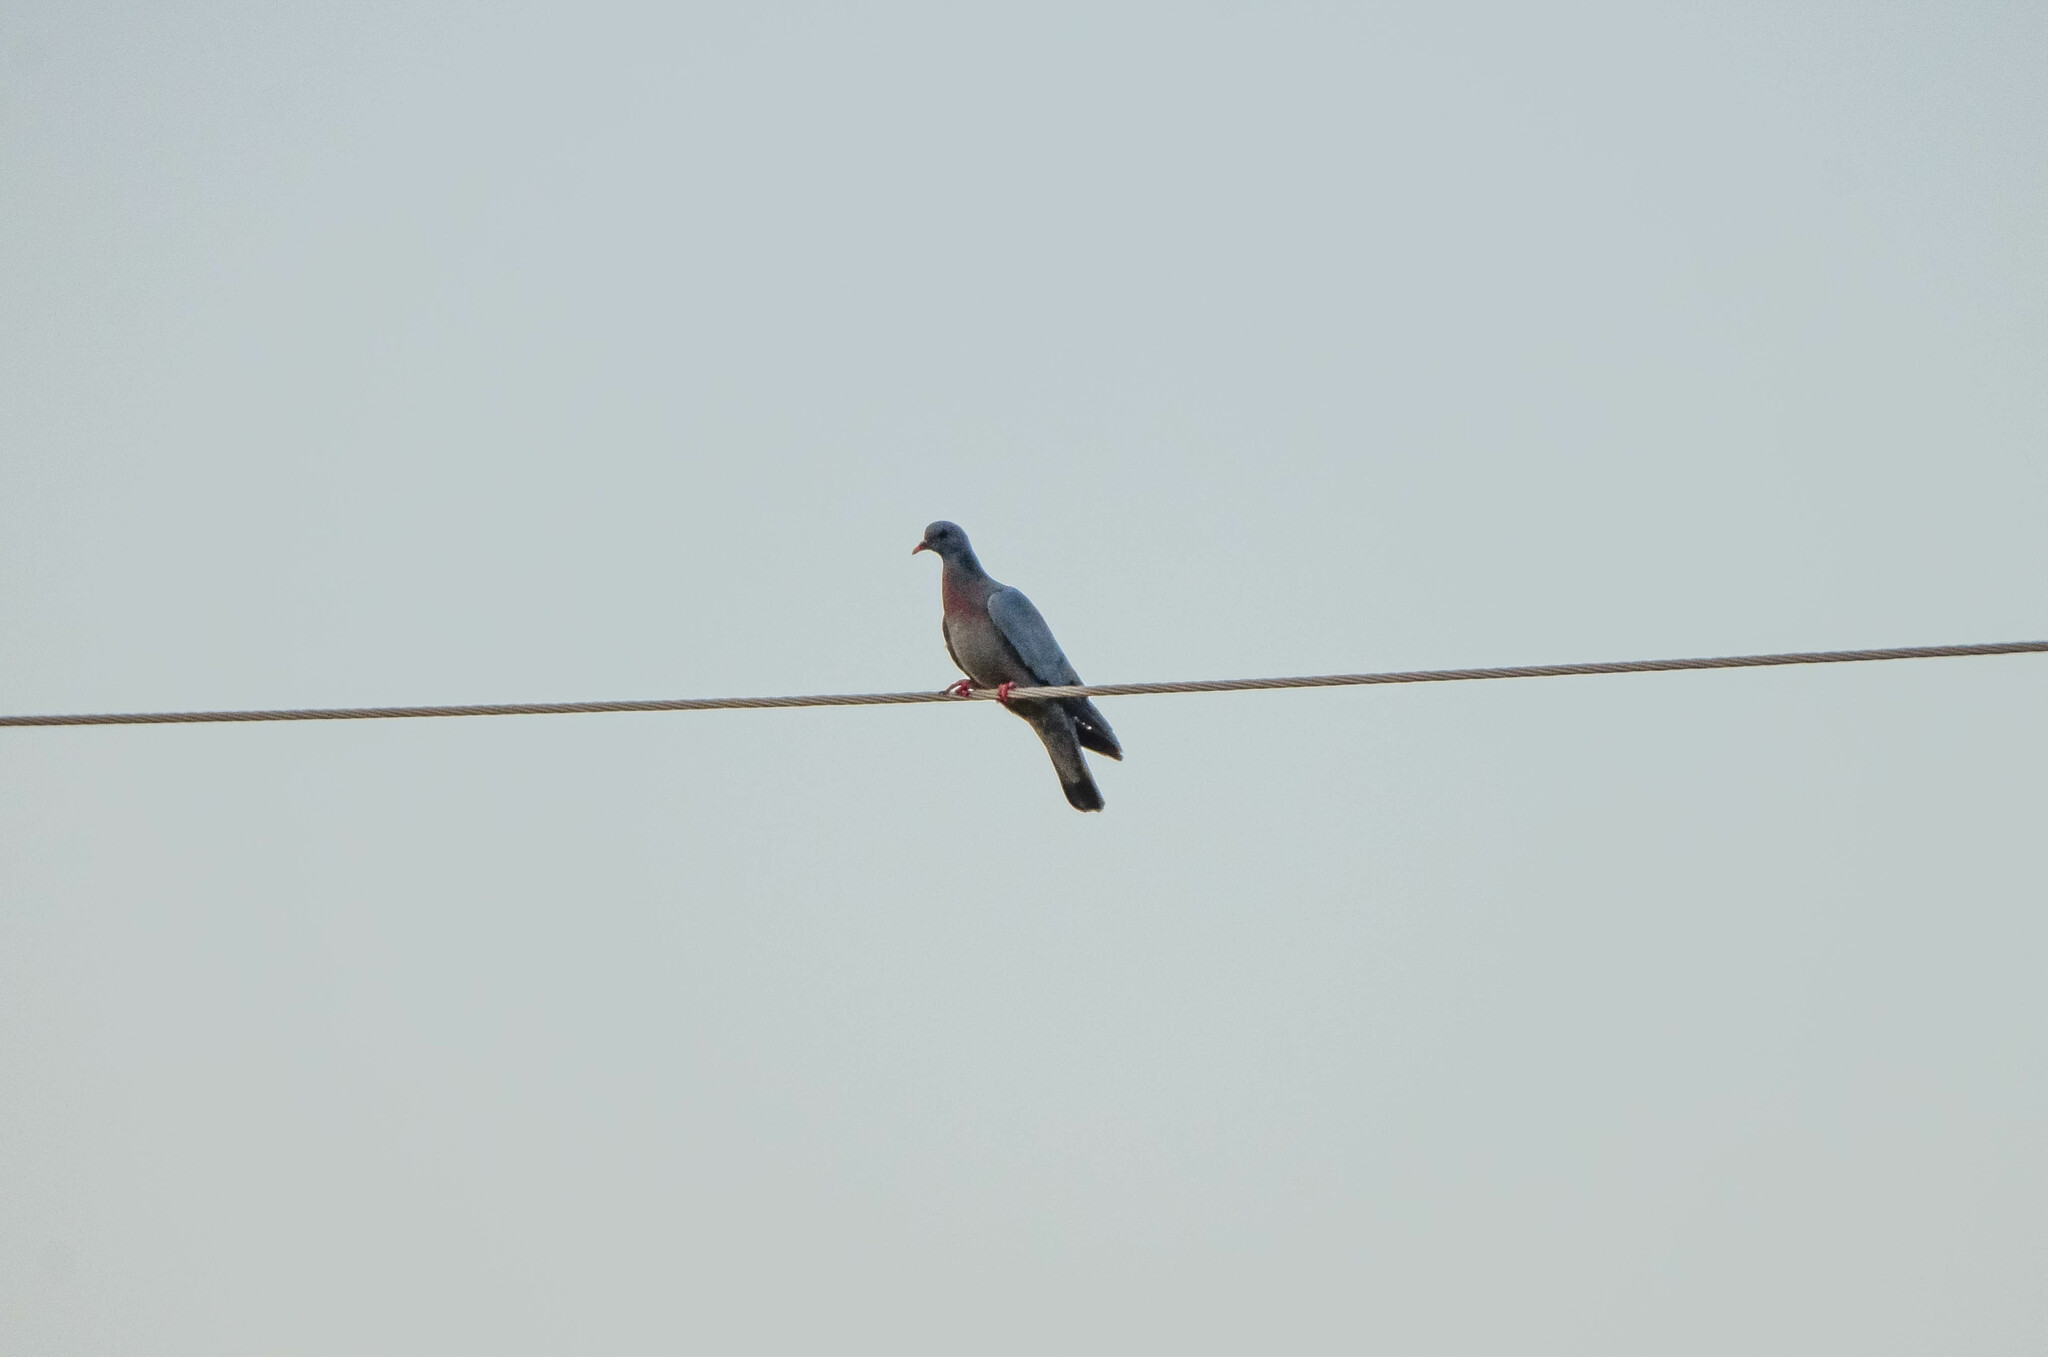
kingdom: Animalia
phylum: Chordata
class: Aves
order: Columbiformes
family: Columbidae
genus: Columba
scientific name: Columba oenas
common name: Stock dove
